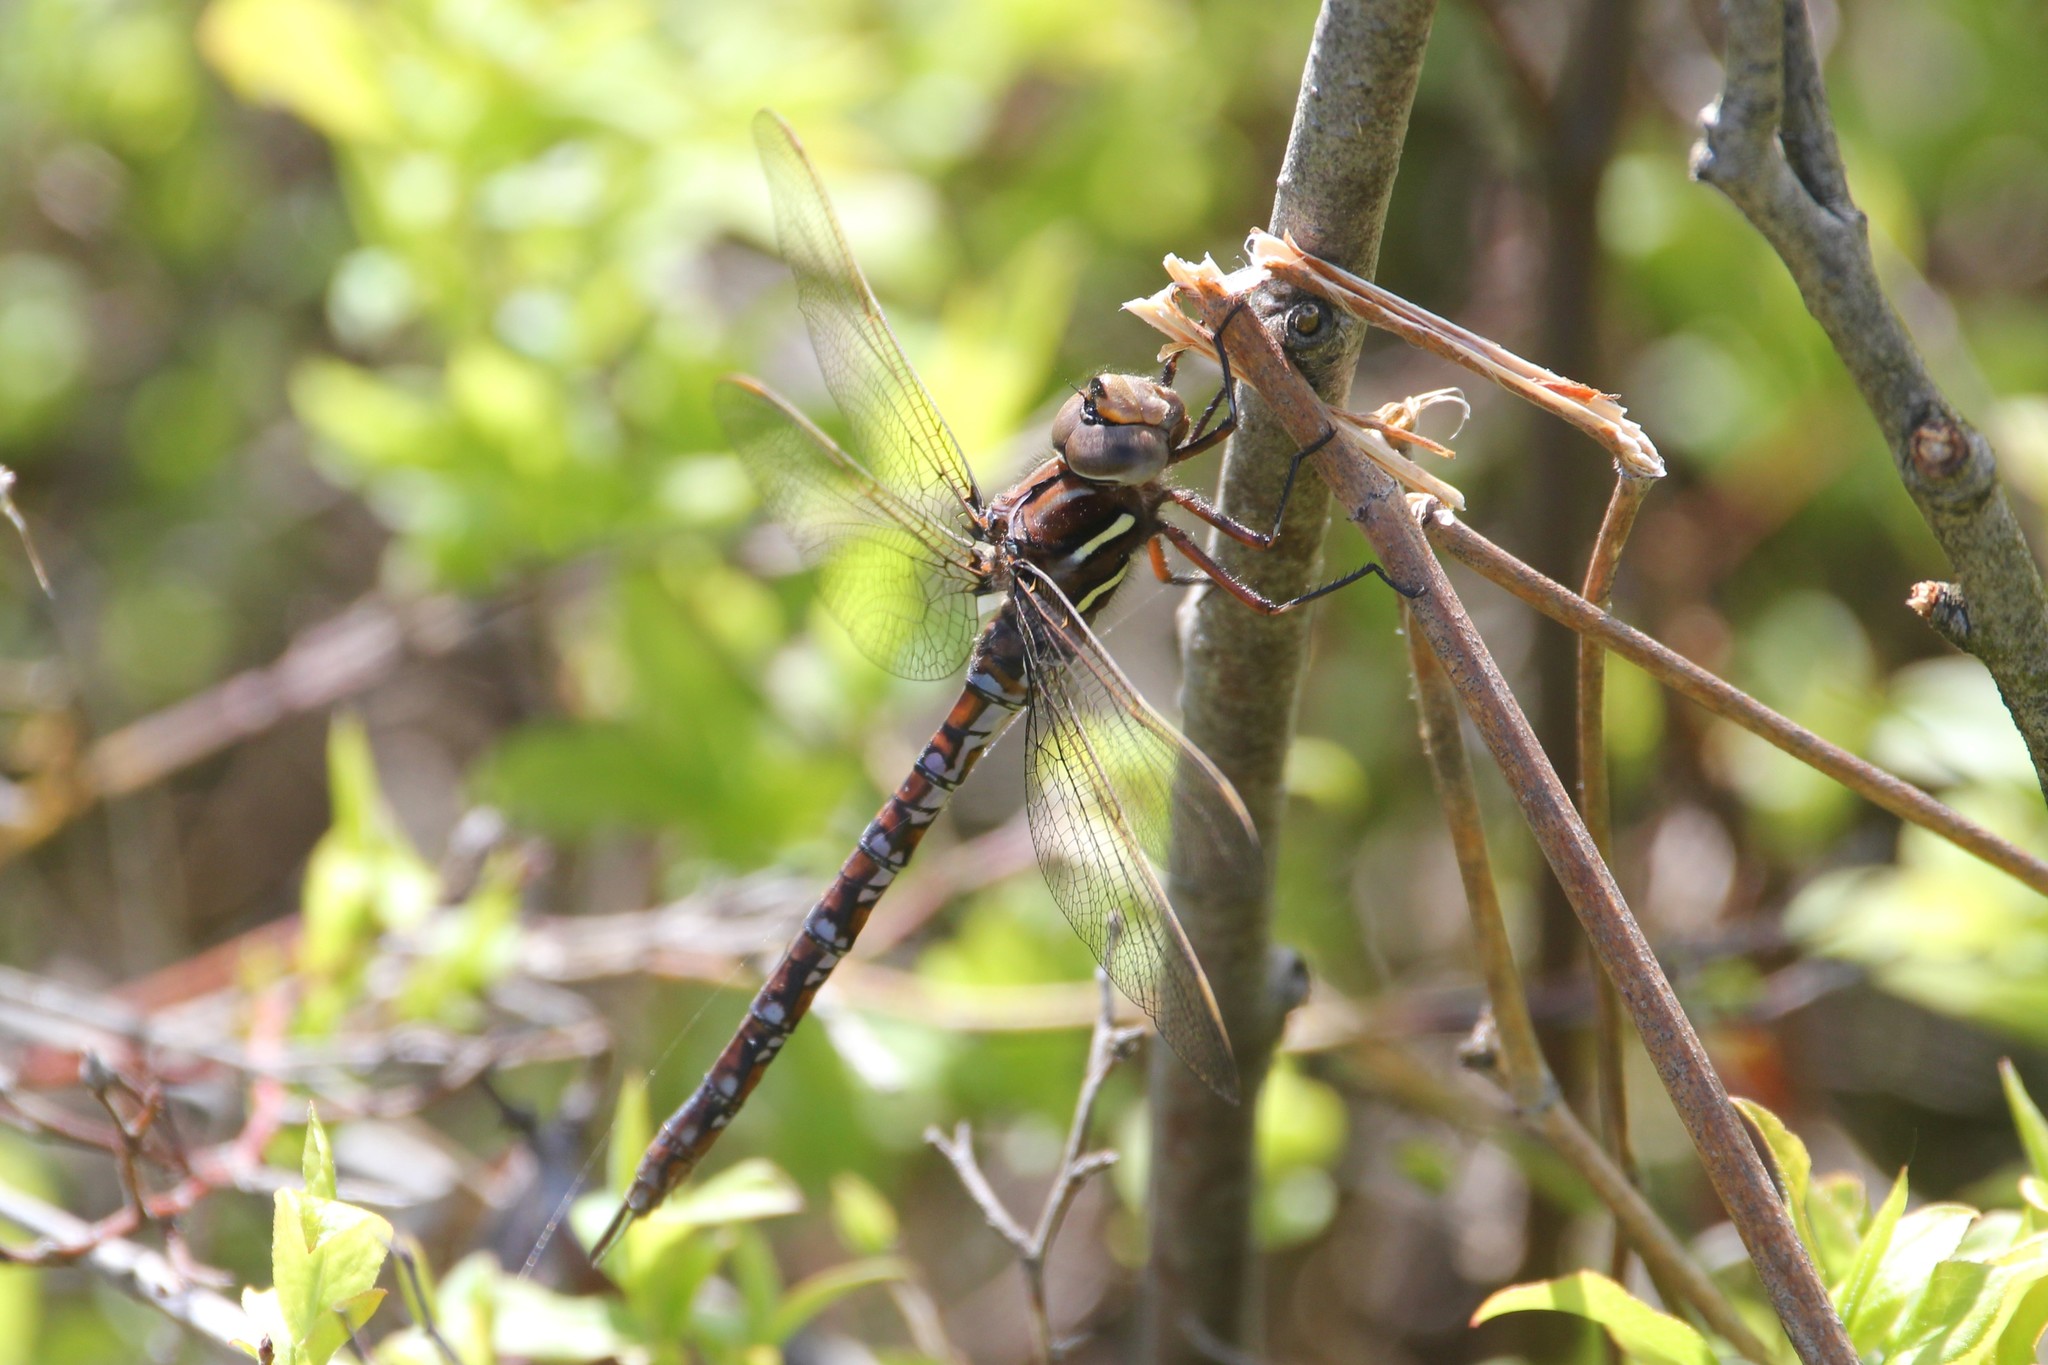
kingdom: Animalia
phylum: Arthropoda
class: Insecta
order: Odonata
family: Aeshnidae
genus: Basiaeschna
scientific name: Basiaeschna janata
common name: Springtime darner
